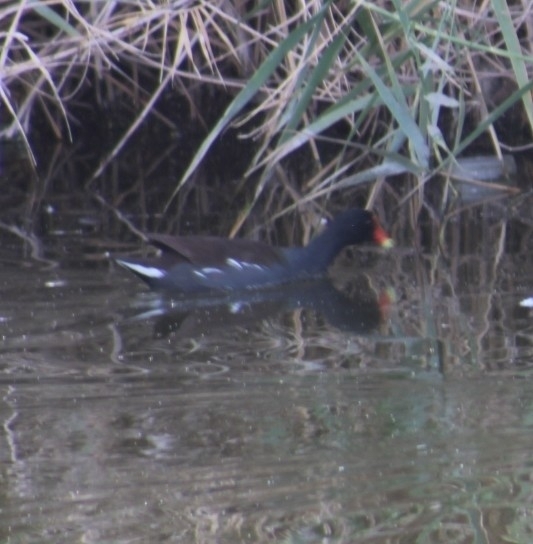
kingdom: Animalia
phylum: Chordata
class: Aves
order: Gruiformes
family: Rallidae
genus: Gallinula
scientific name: Gallinula chloropus
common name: Common moorhen
